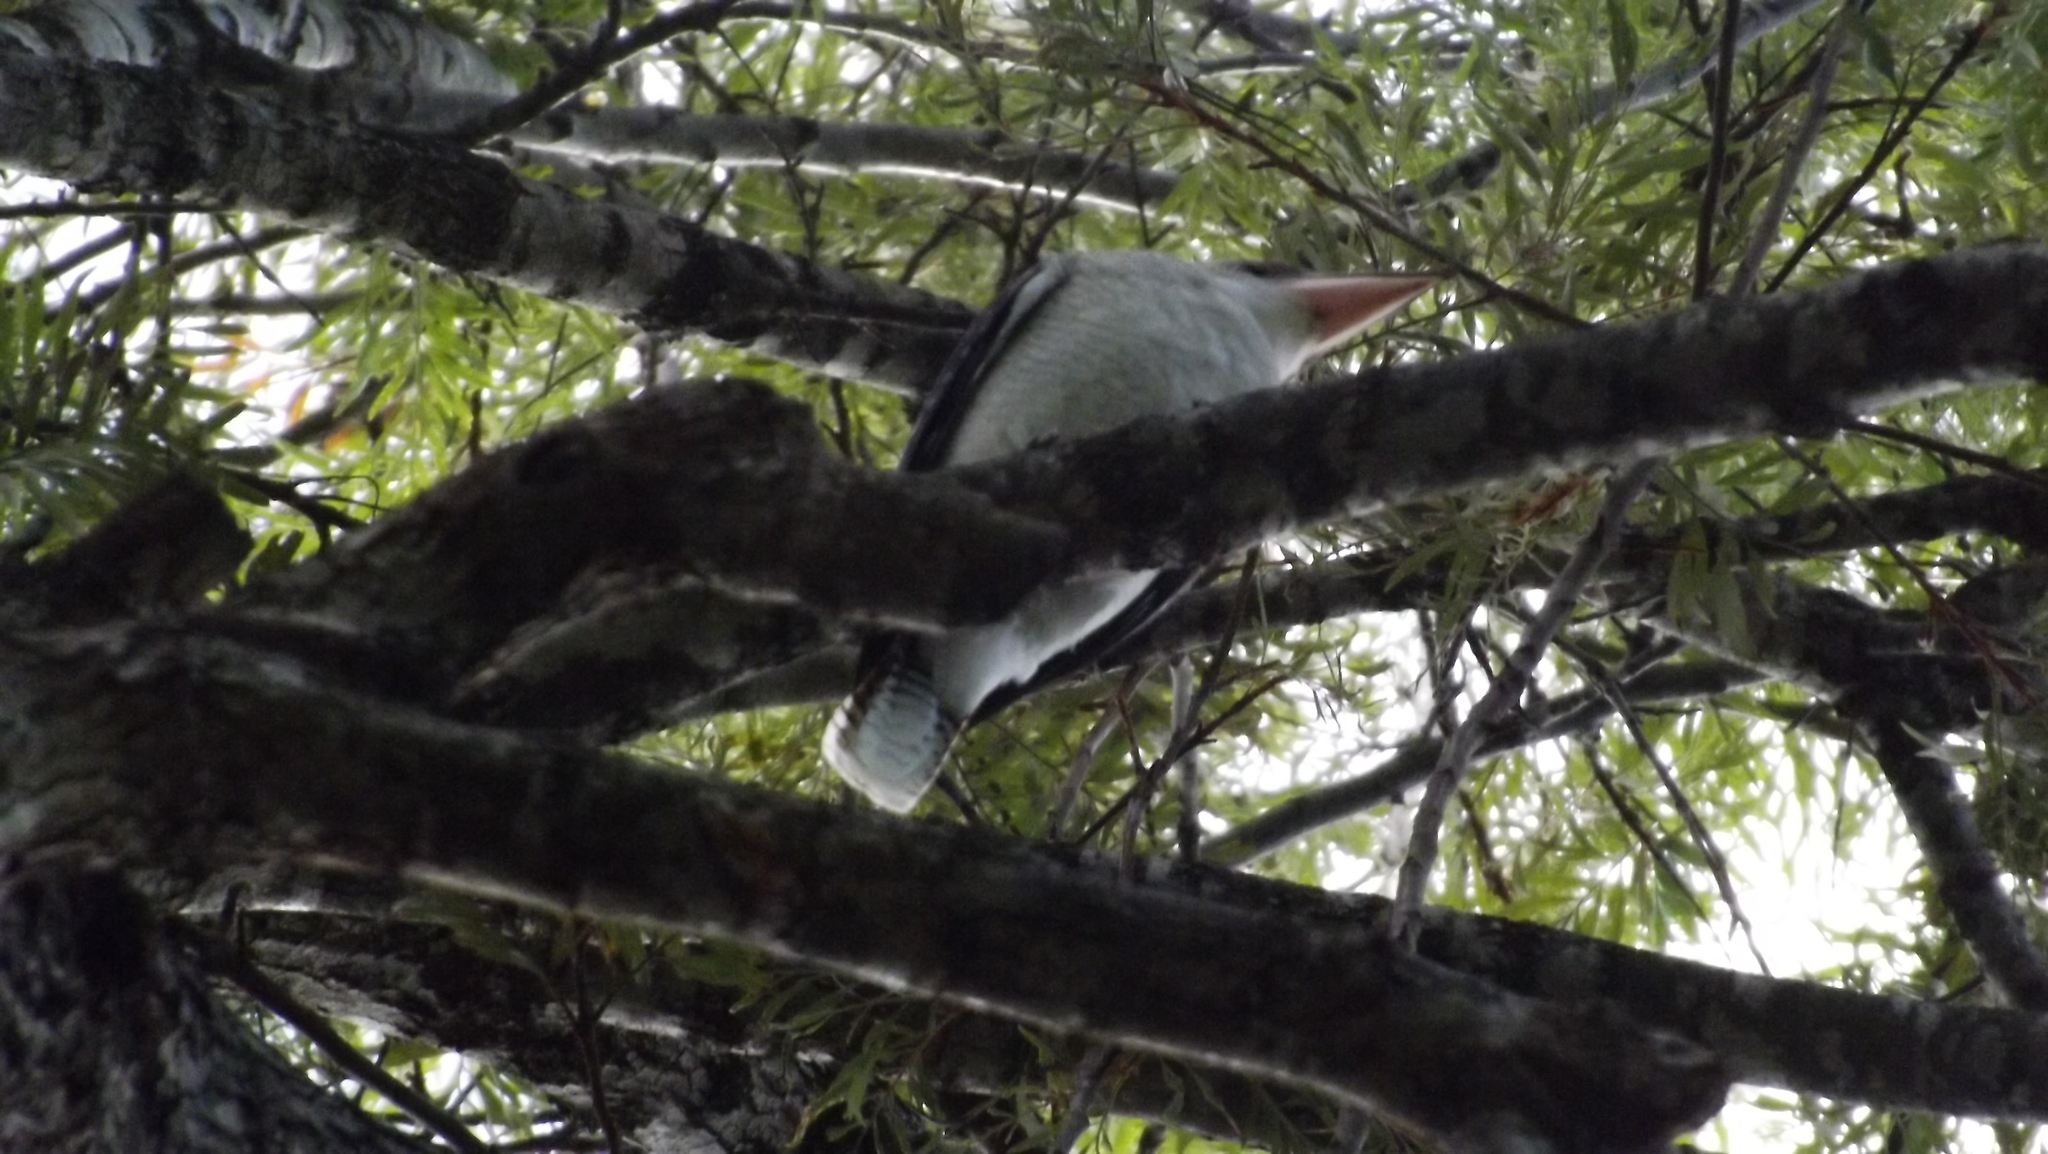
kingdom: Animalia
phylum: Chordata
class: Aves
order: Coraciiformes
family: Alcedinidae
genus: Dacelo
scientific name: Dacelo novaeguineae
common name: Laughing kookaburra
